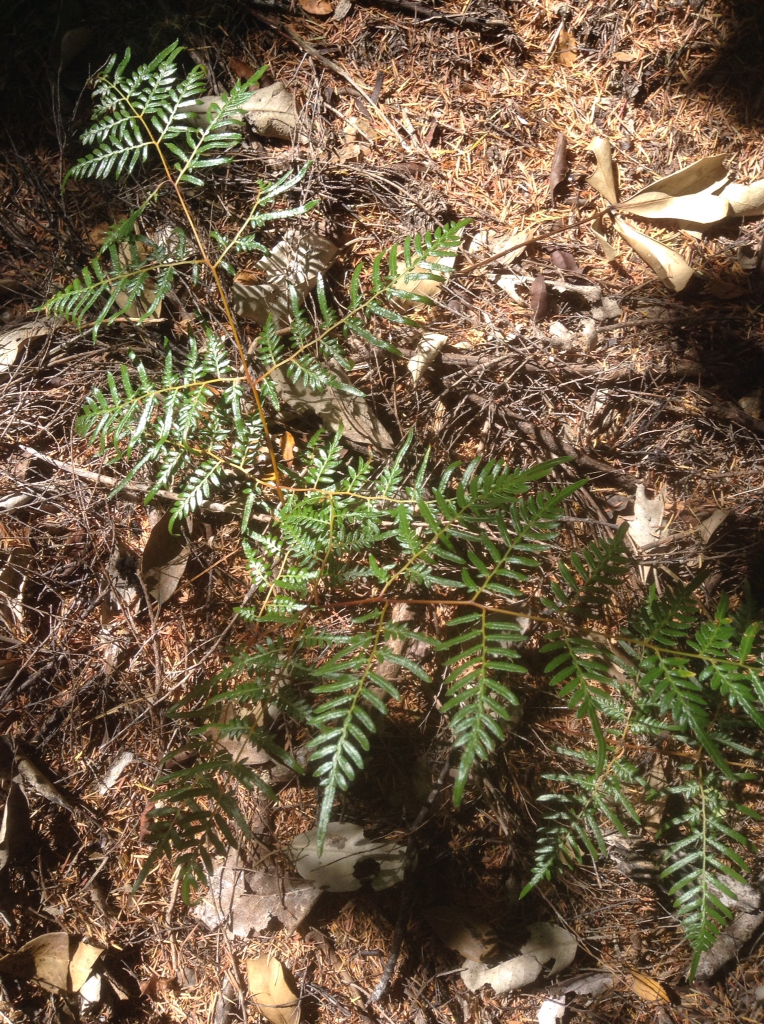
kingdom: Plantae
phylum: Tracheophyta
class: Polypodiopsida
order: Polypodiales
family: Dennstaedtiaceae
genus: Pteridium
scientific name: Pteridium esculentum
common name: Bracken fern
